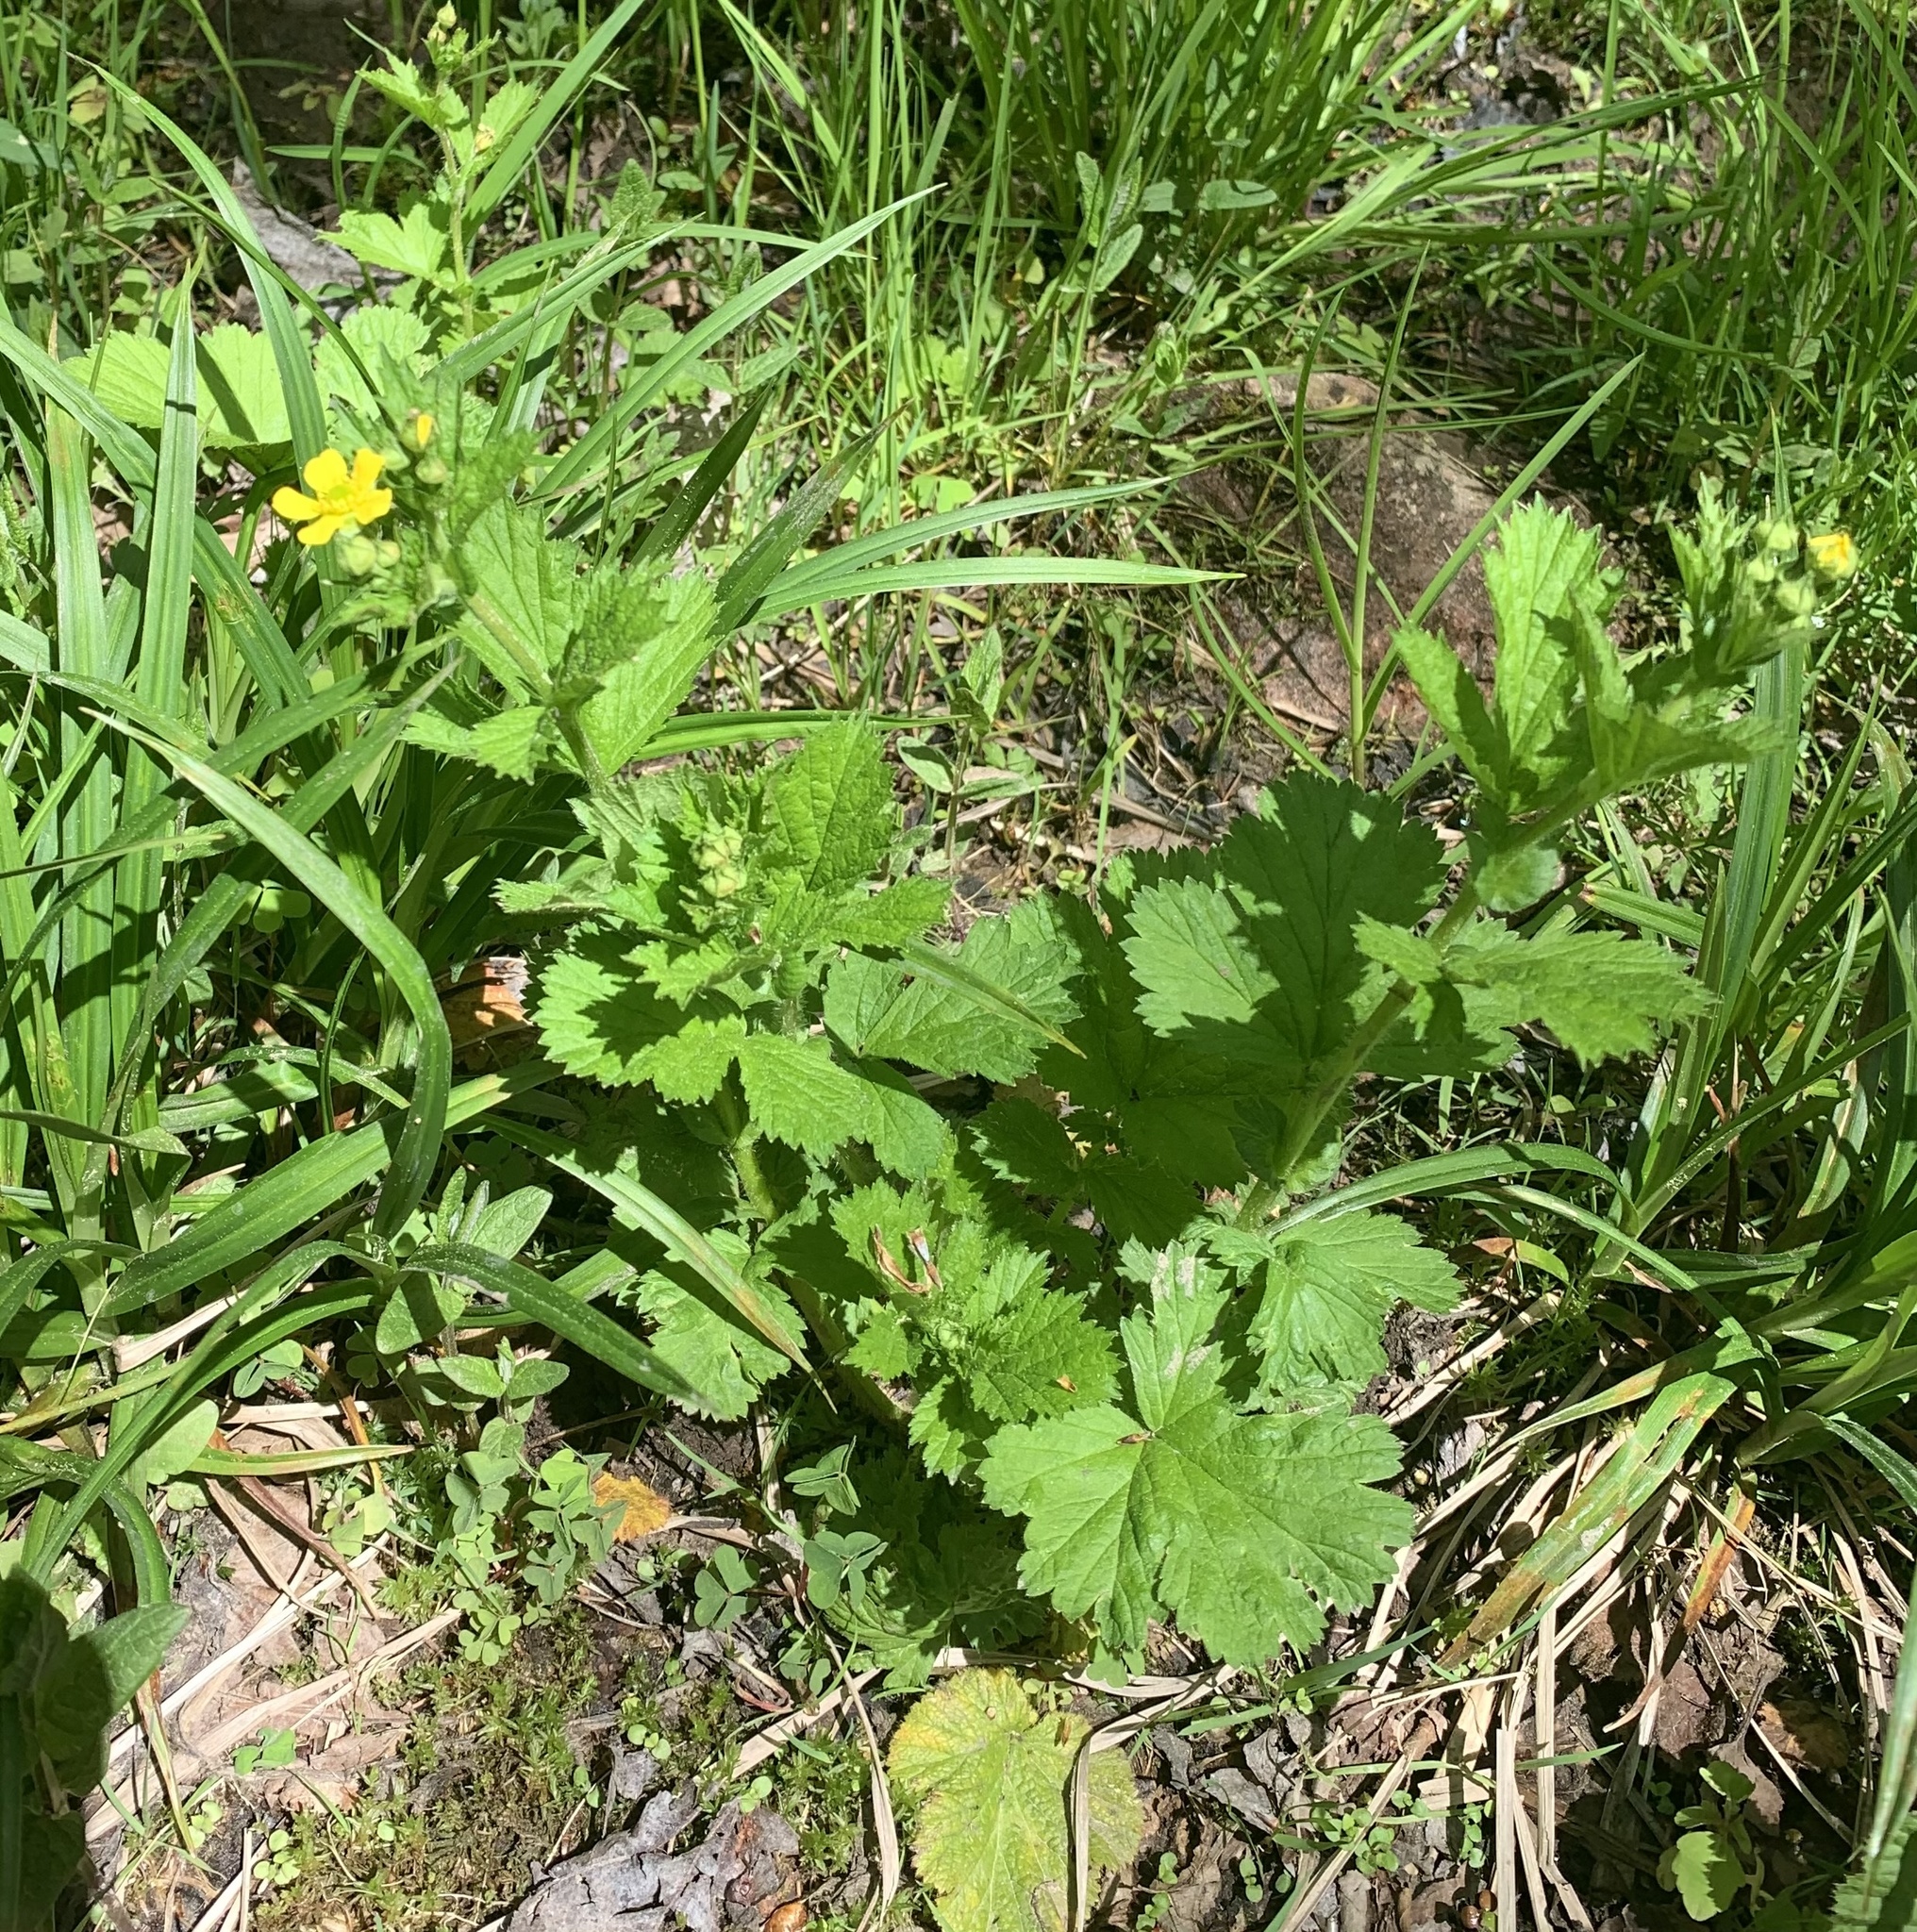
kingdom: Plantae
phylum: Tracheophyta
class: Magnoliopsida
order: Rosales
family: Rosaceae
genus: Geum
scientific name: Geum macrophyllum
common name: Large-leaved avens
